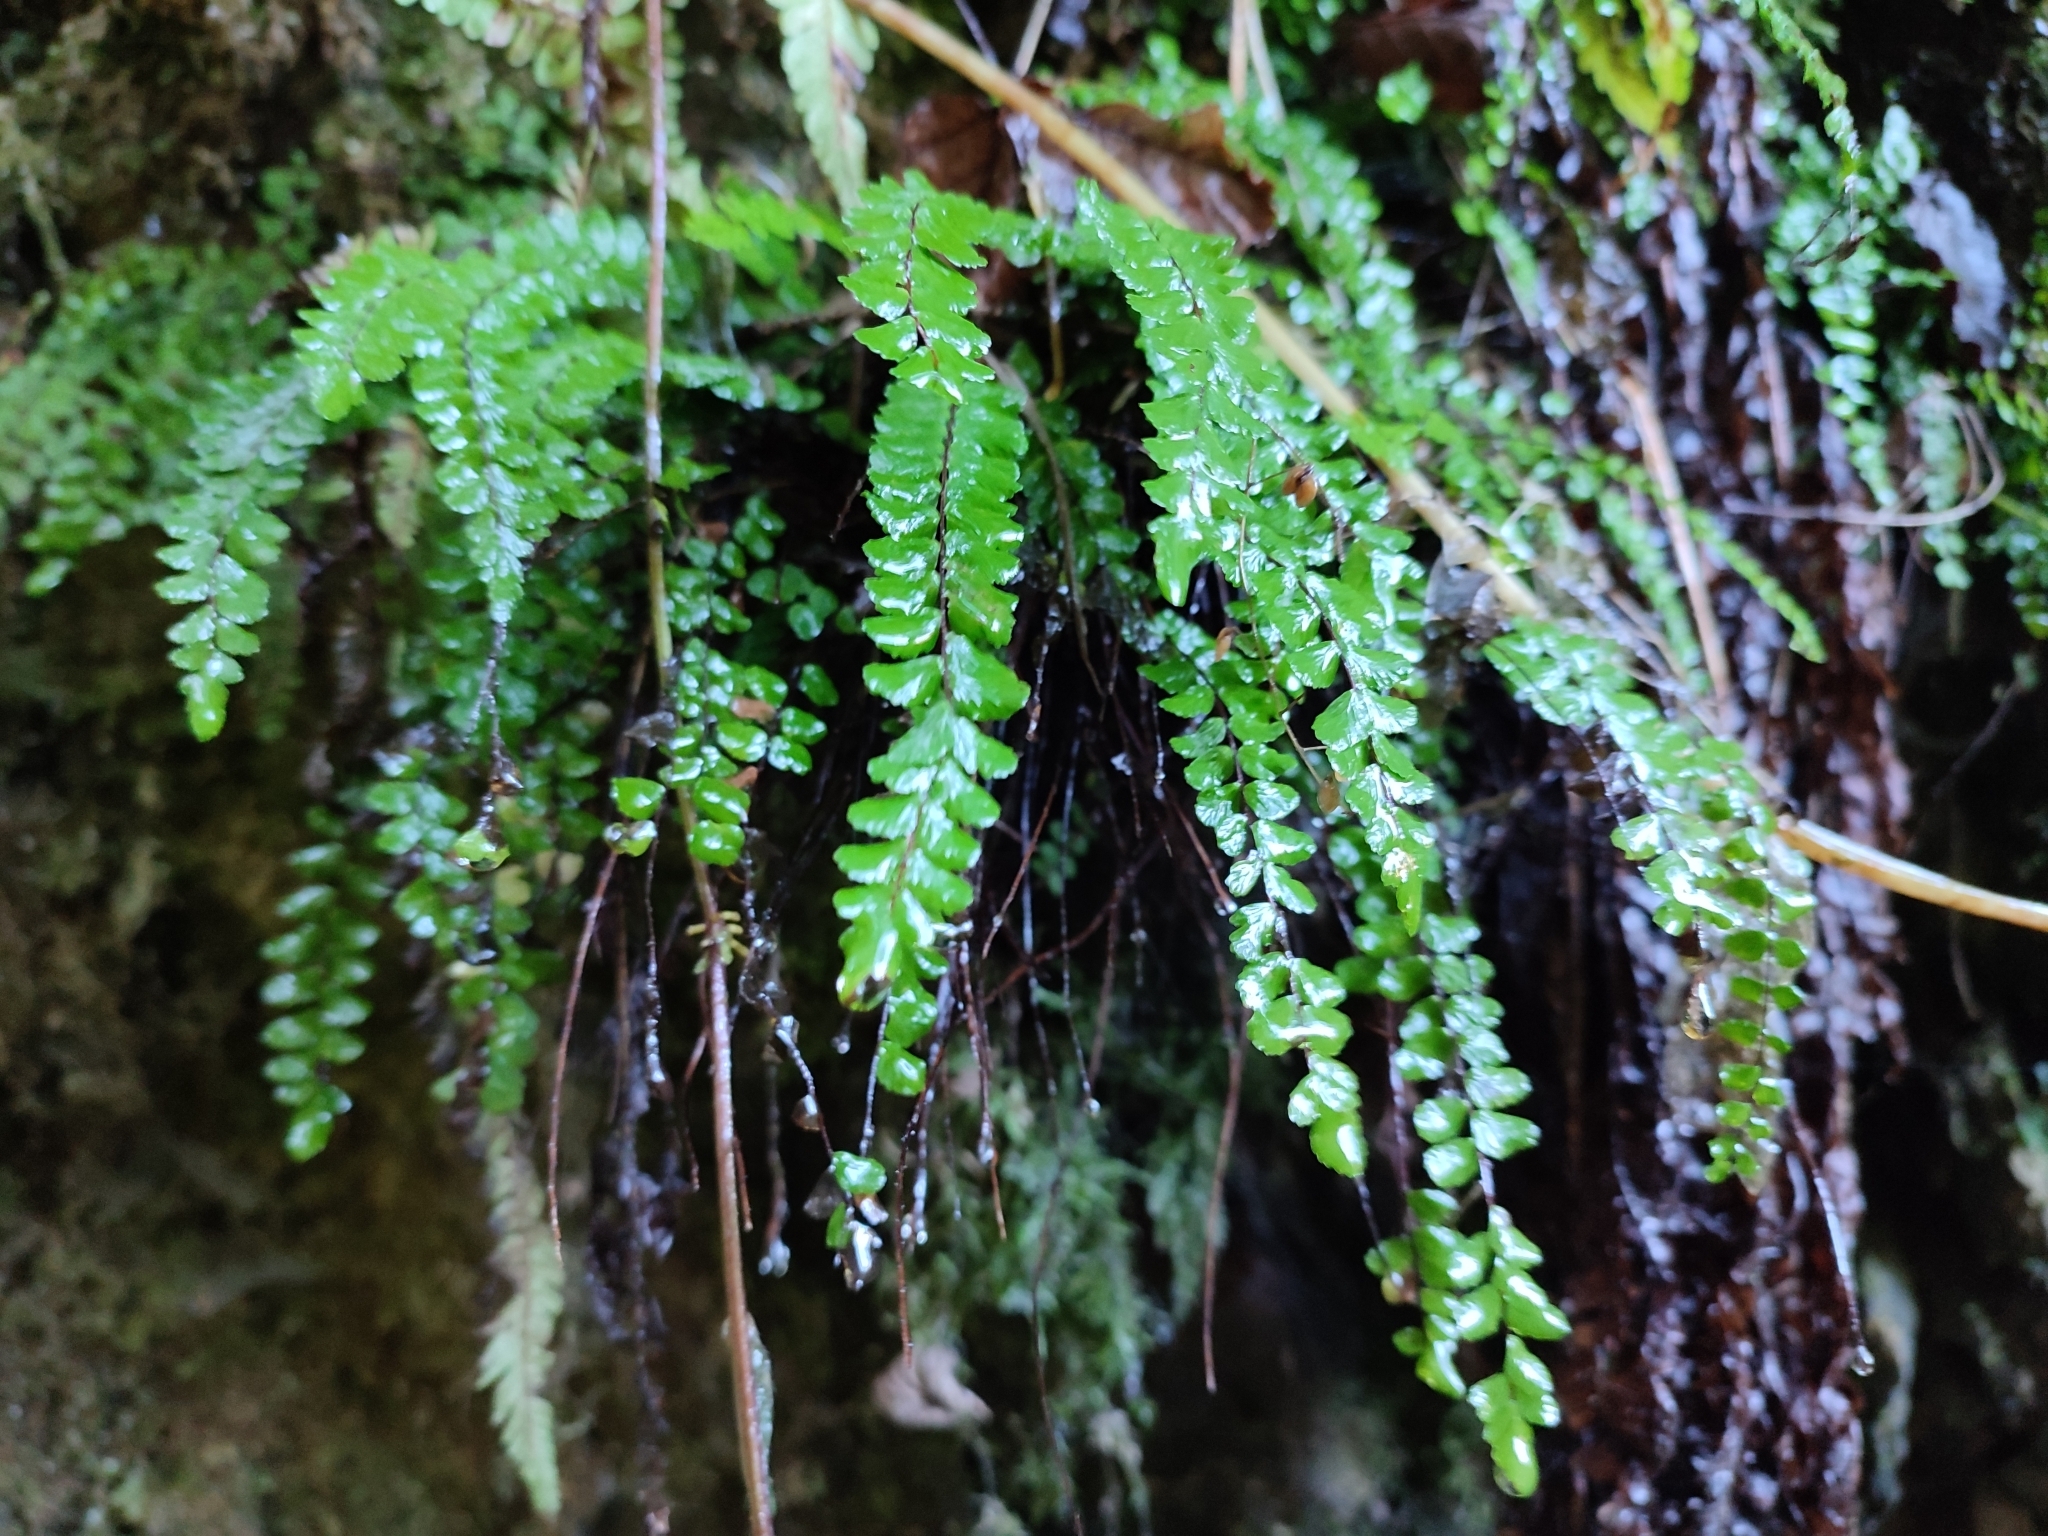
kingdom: Plantae
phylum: Tracheophyta
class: Polypodiopsida
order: Polypodiales
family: Aspleniaceae
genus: Asplenium
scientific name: Asplenium trichomanes
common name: Maidenhair spleenwort
